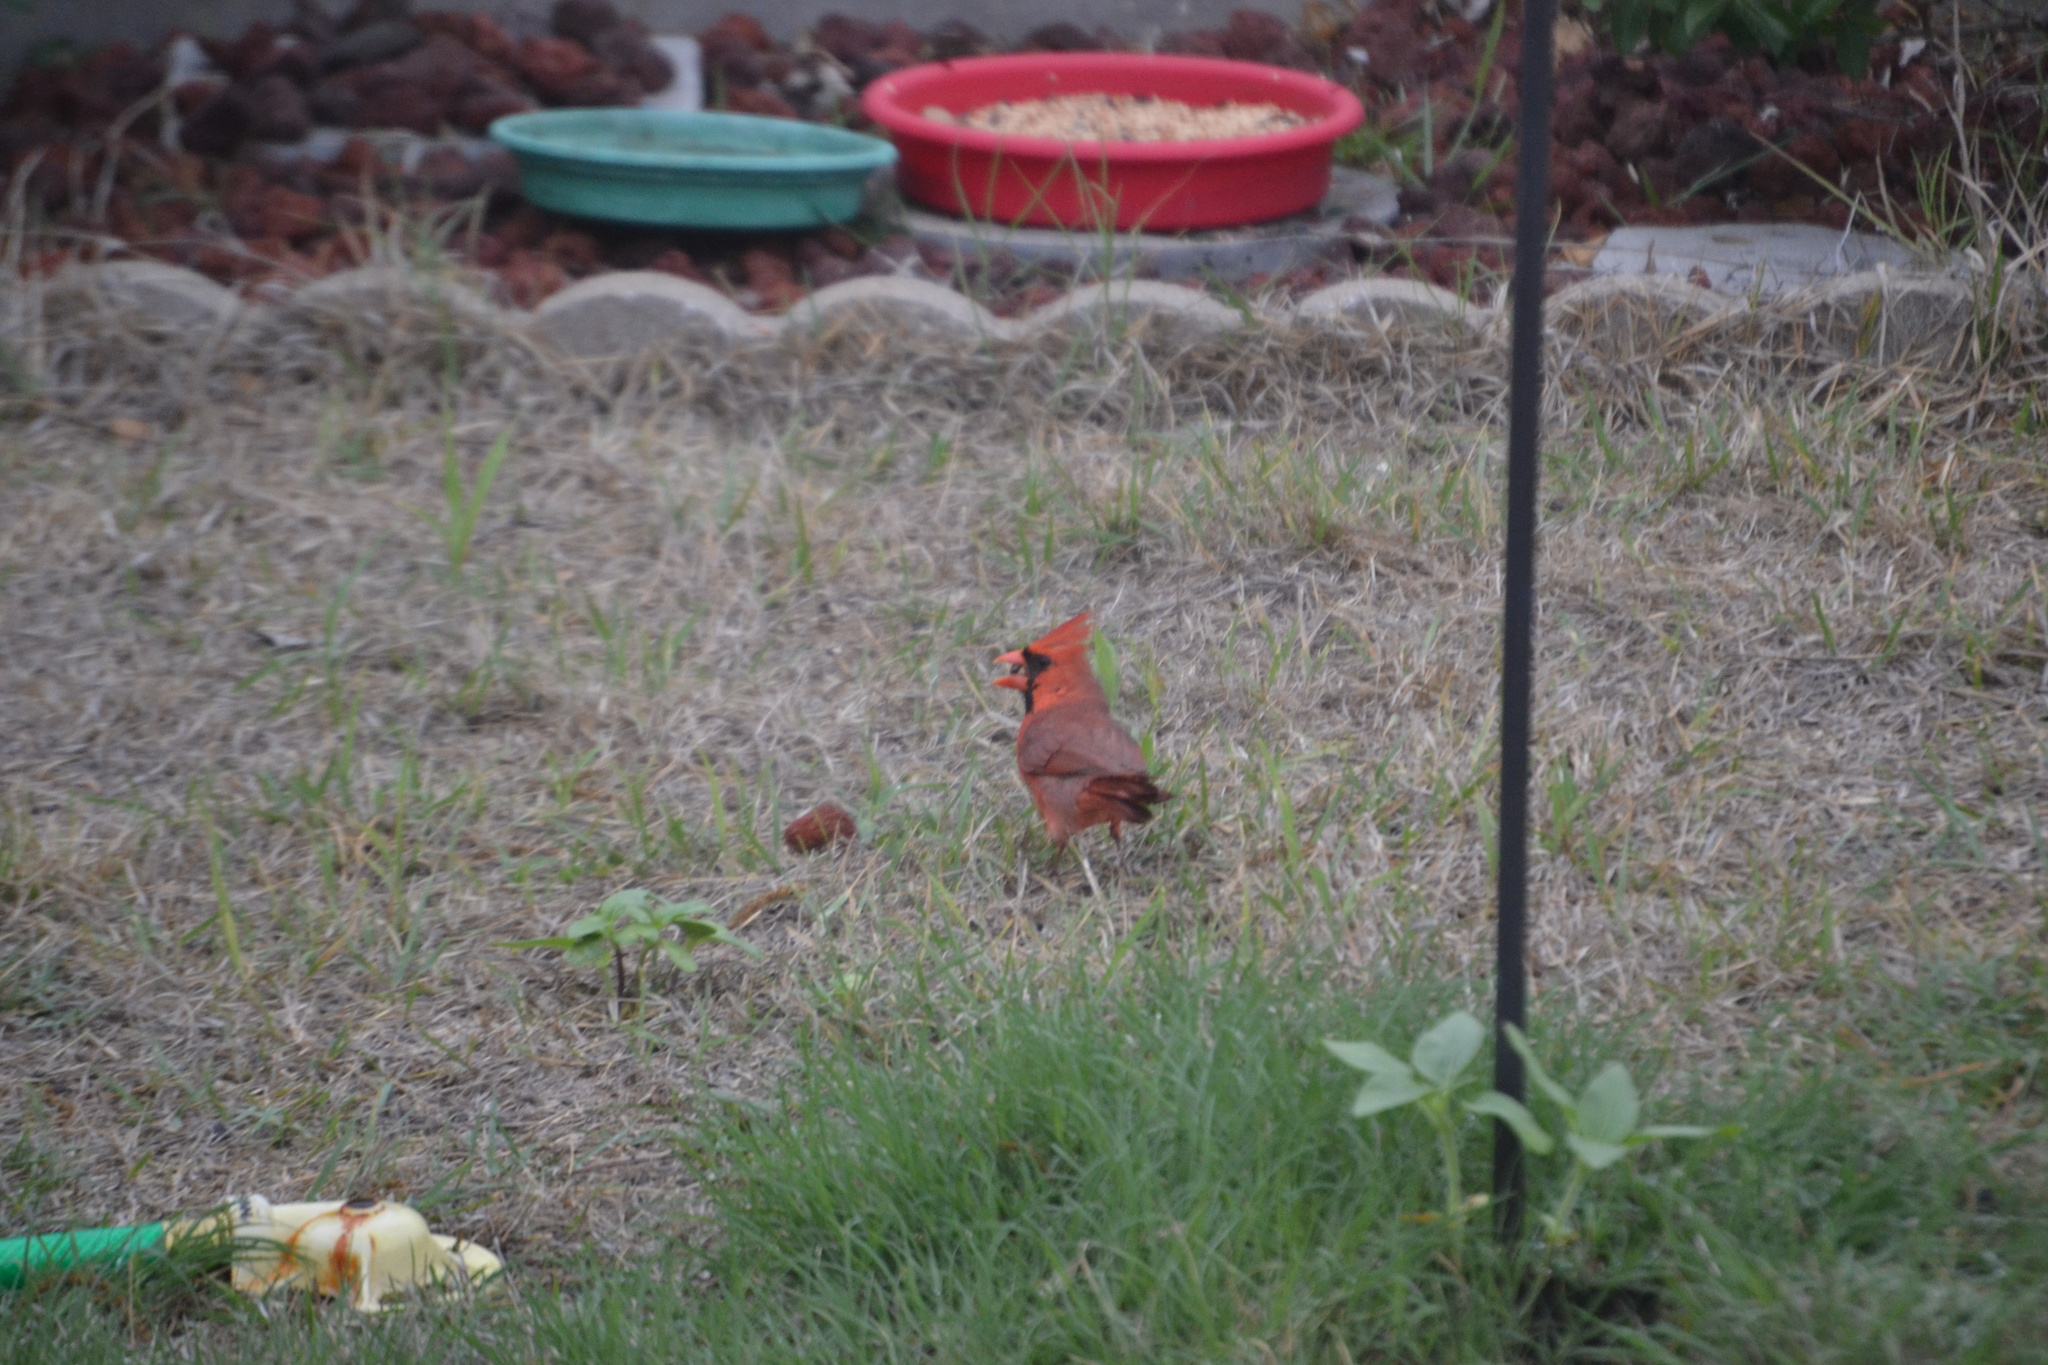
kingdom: Animalia
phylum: Chordata
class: Aves
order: Passeriformes
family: Cardinalidae
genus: Cardinalis
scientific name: Cardinalis cardinalis
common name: Northern cardinal
